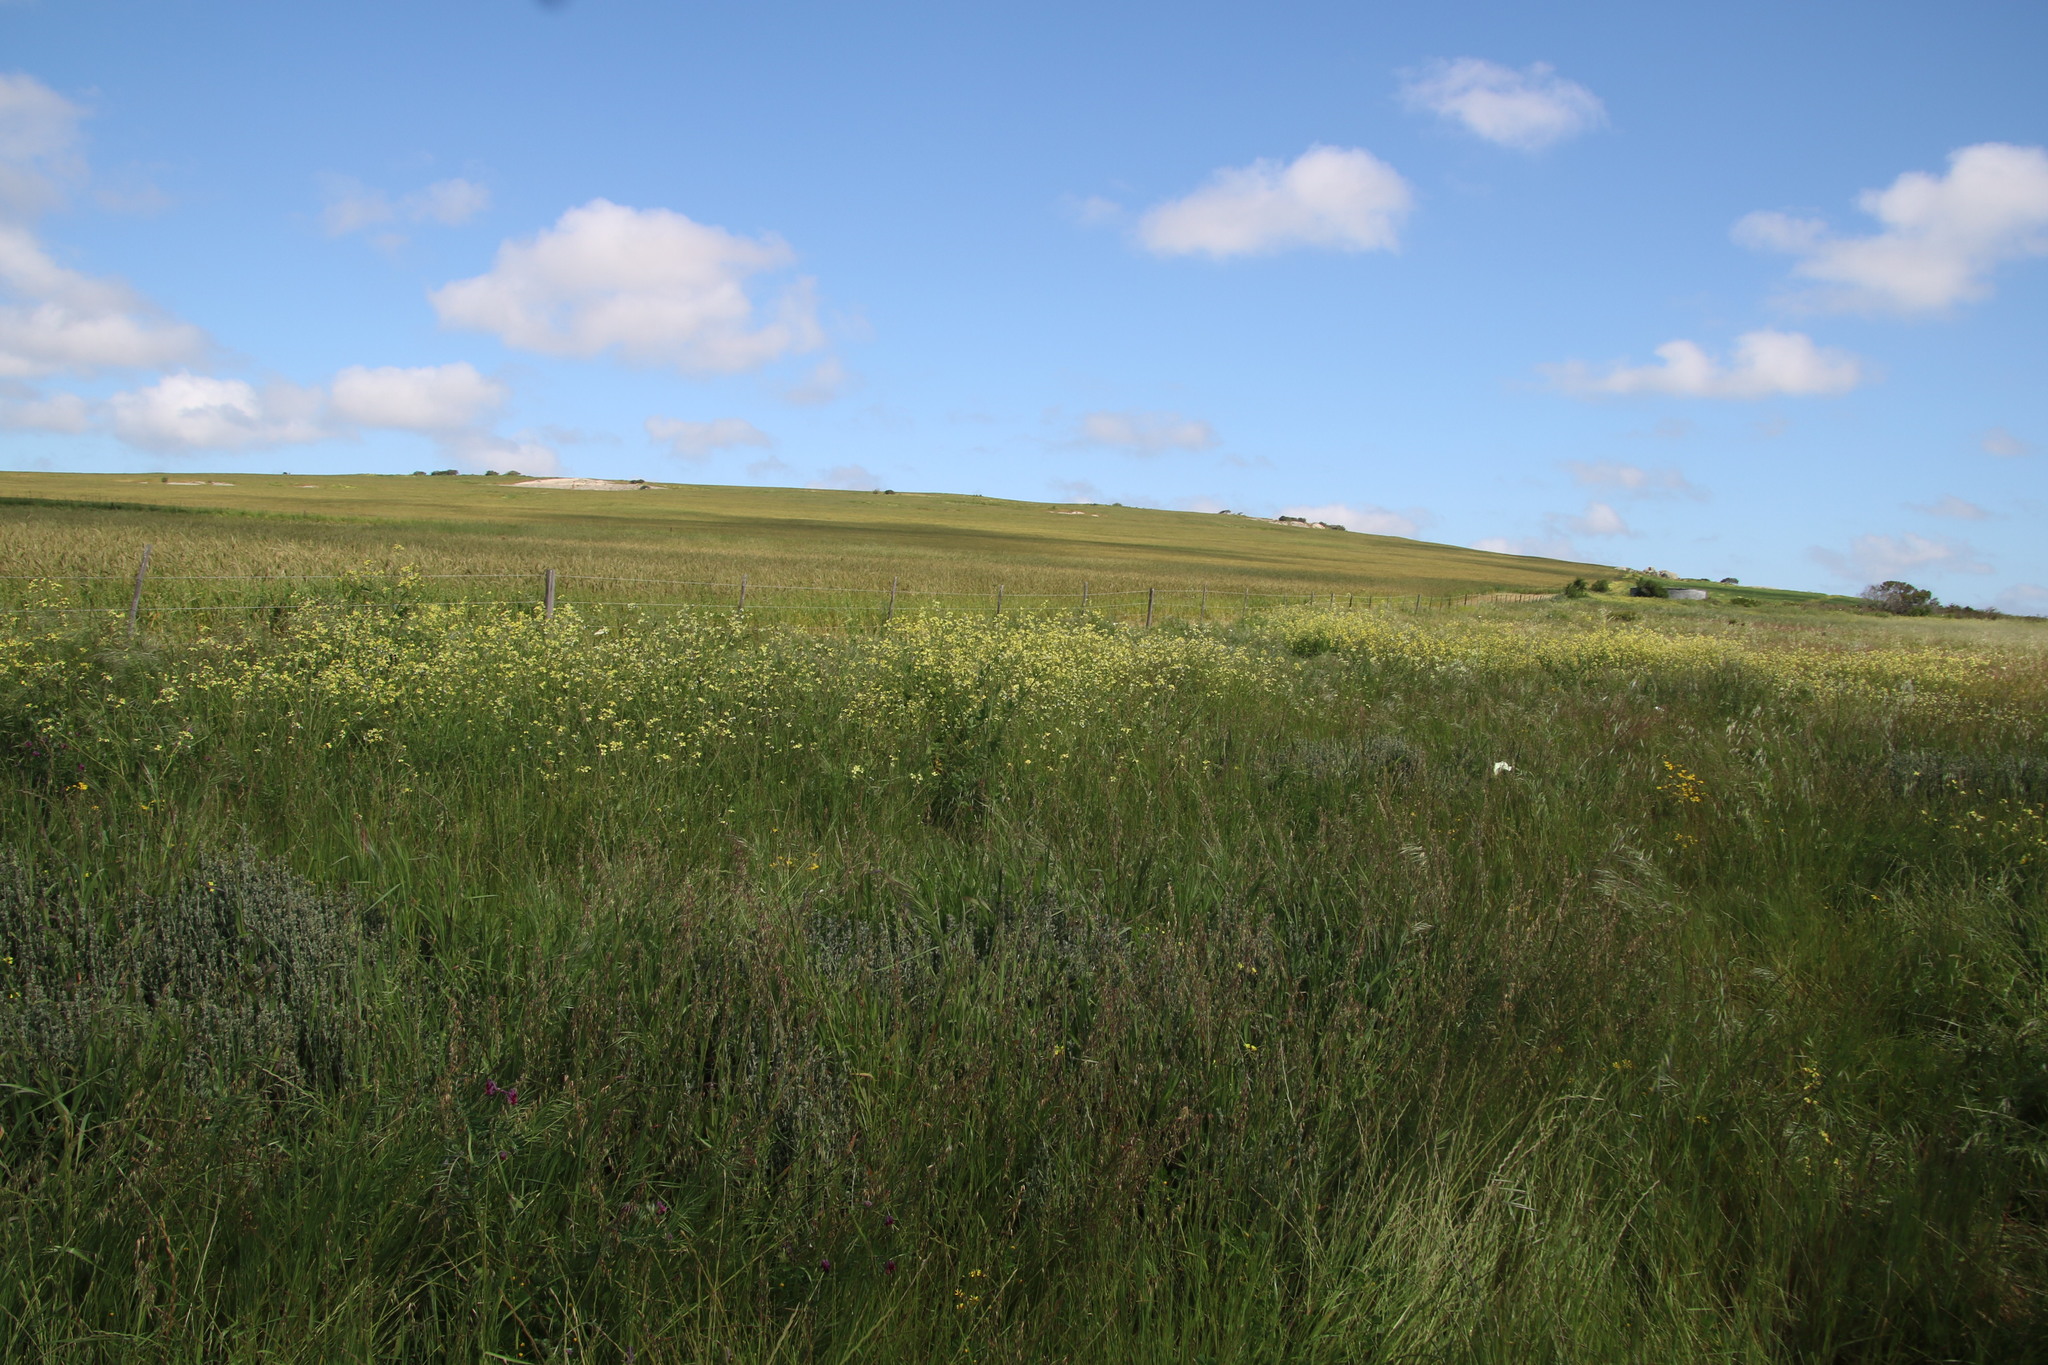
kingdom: Plantae
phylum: Tracheophyta
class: Magnoliopsida
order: Brassicales
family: Brassicaceae
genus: Raphanus
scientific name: Raphanus raphanistrum
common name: Wild radish
